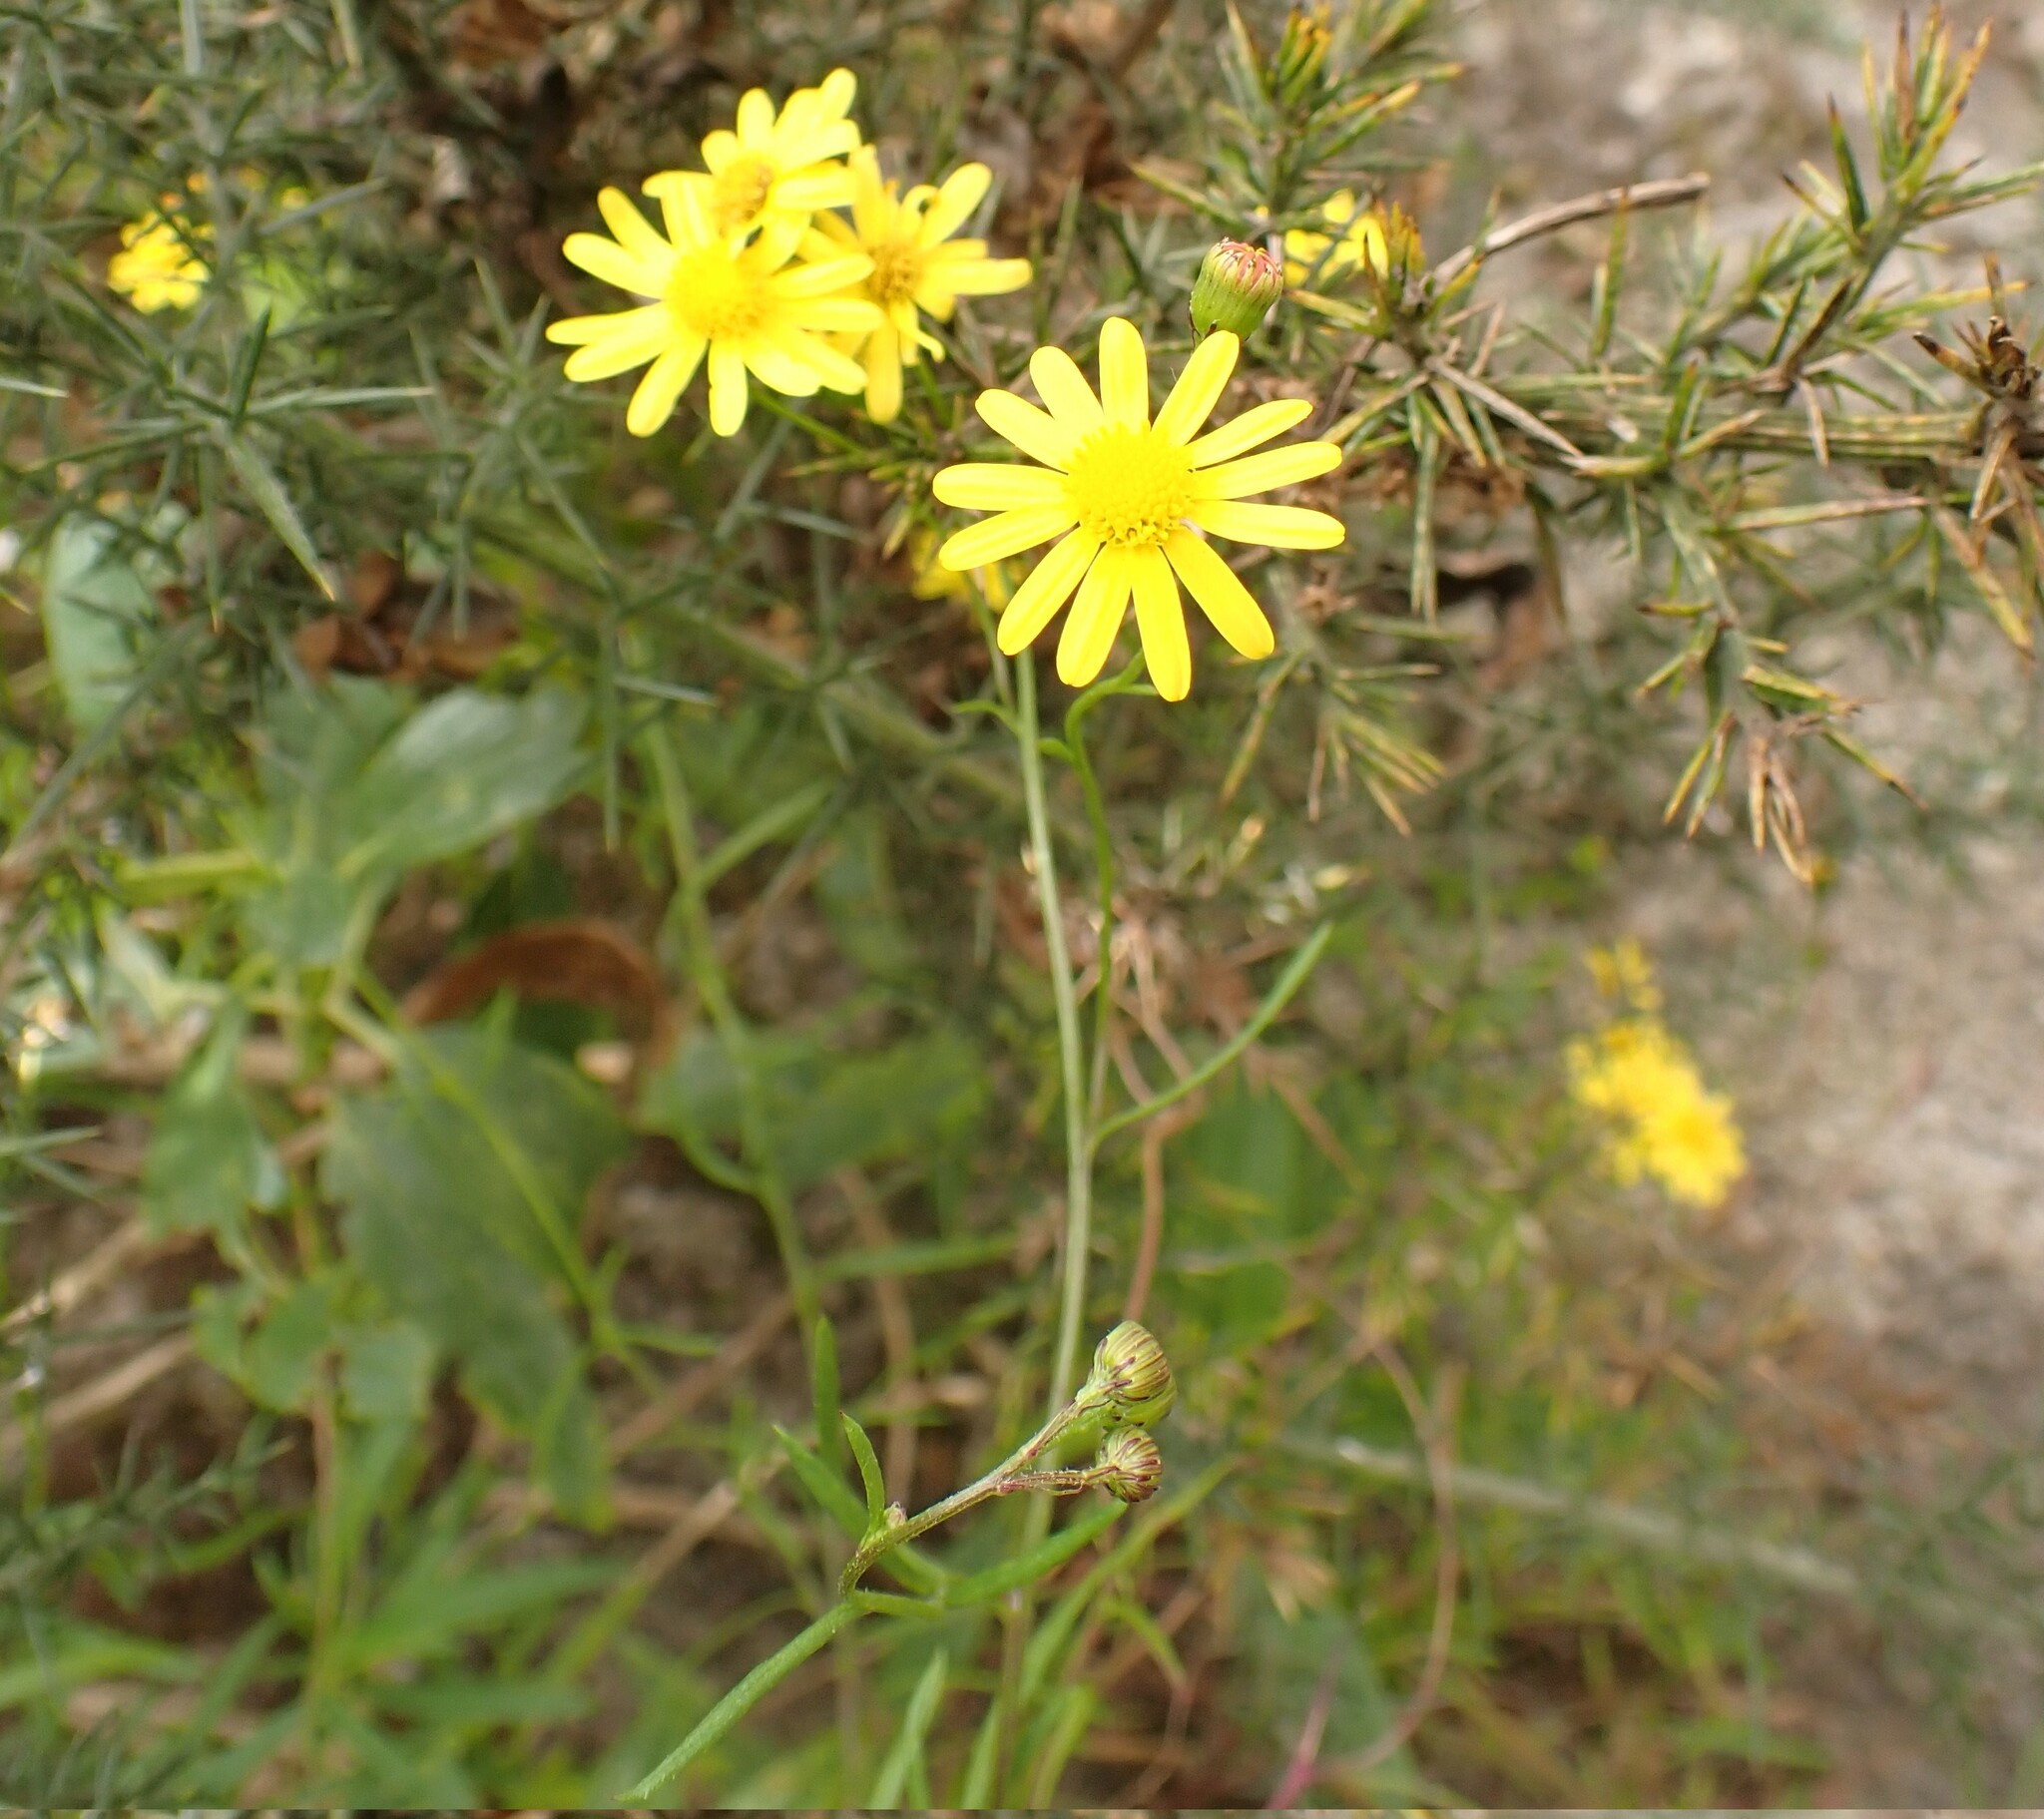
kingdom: Plantae
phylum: Tracheophyta
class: Magnoliopsida
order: Asterales
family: Asteraceae
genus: Senecio
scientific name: Senecio inaequidens
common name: Narrow-leaved ragwort
